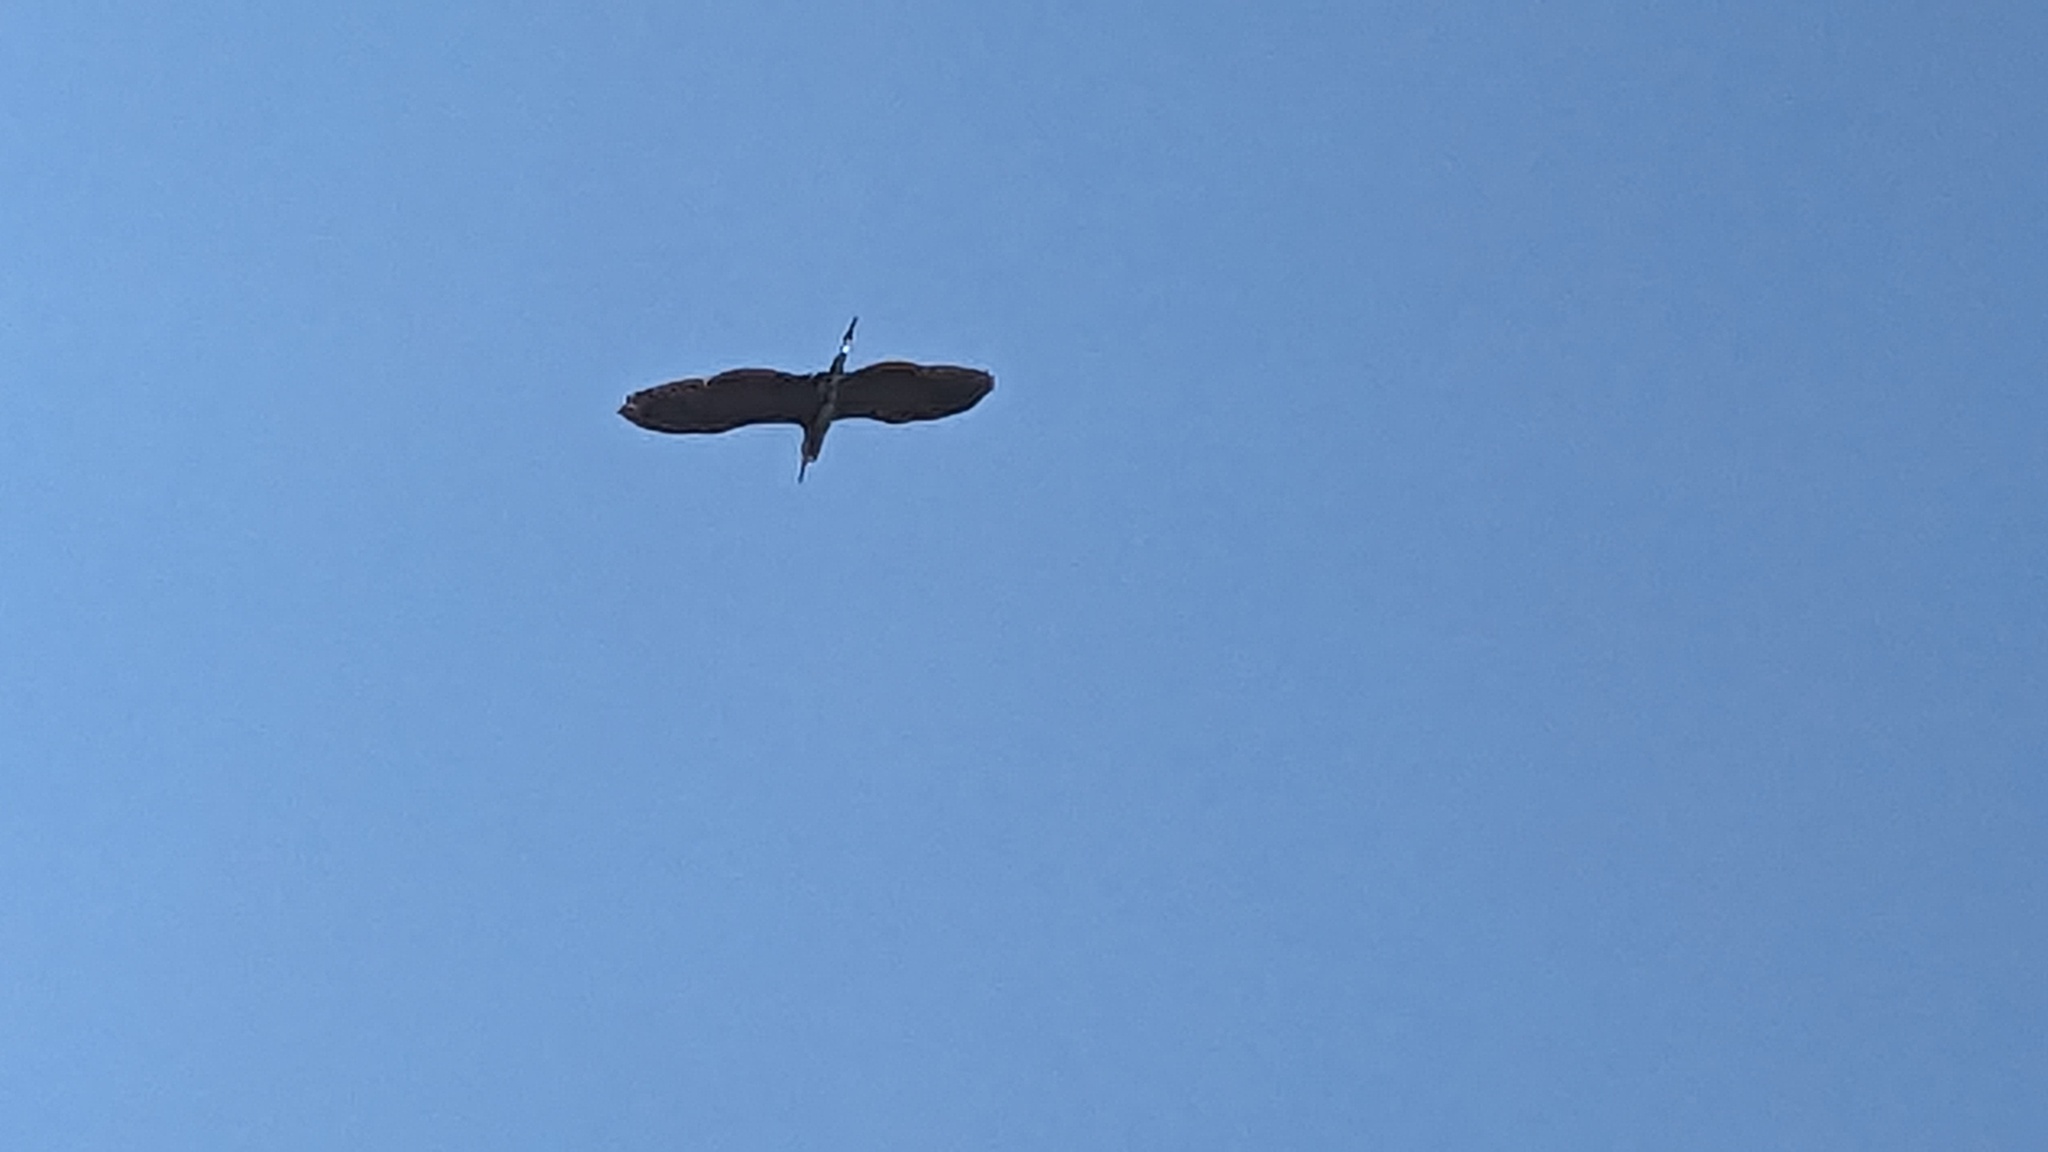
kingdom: Animalia
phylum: Chordata
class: Aves
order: Pelecaniformes
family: Ardeidae
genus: Ardea
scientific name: Ardea herodias
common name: Great blue heron
